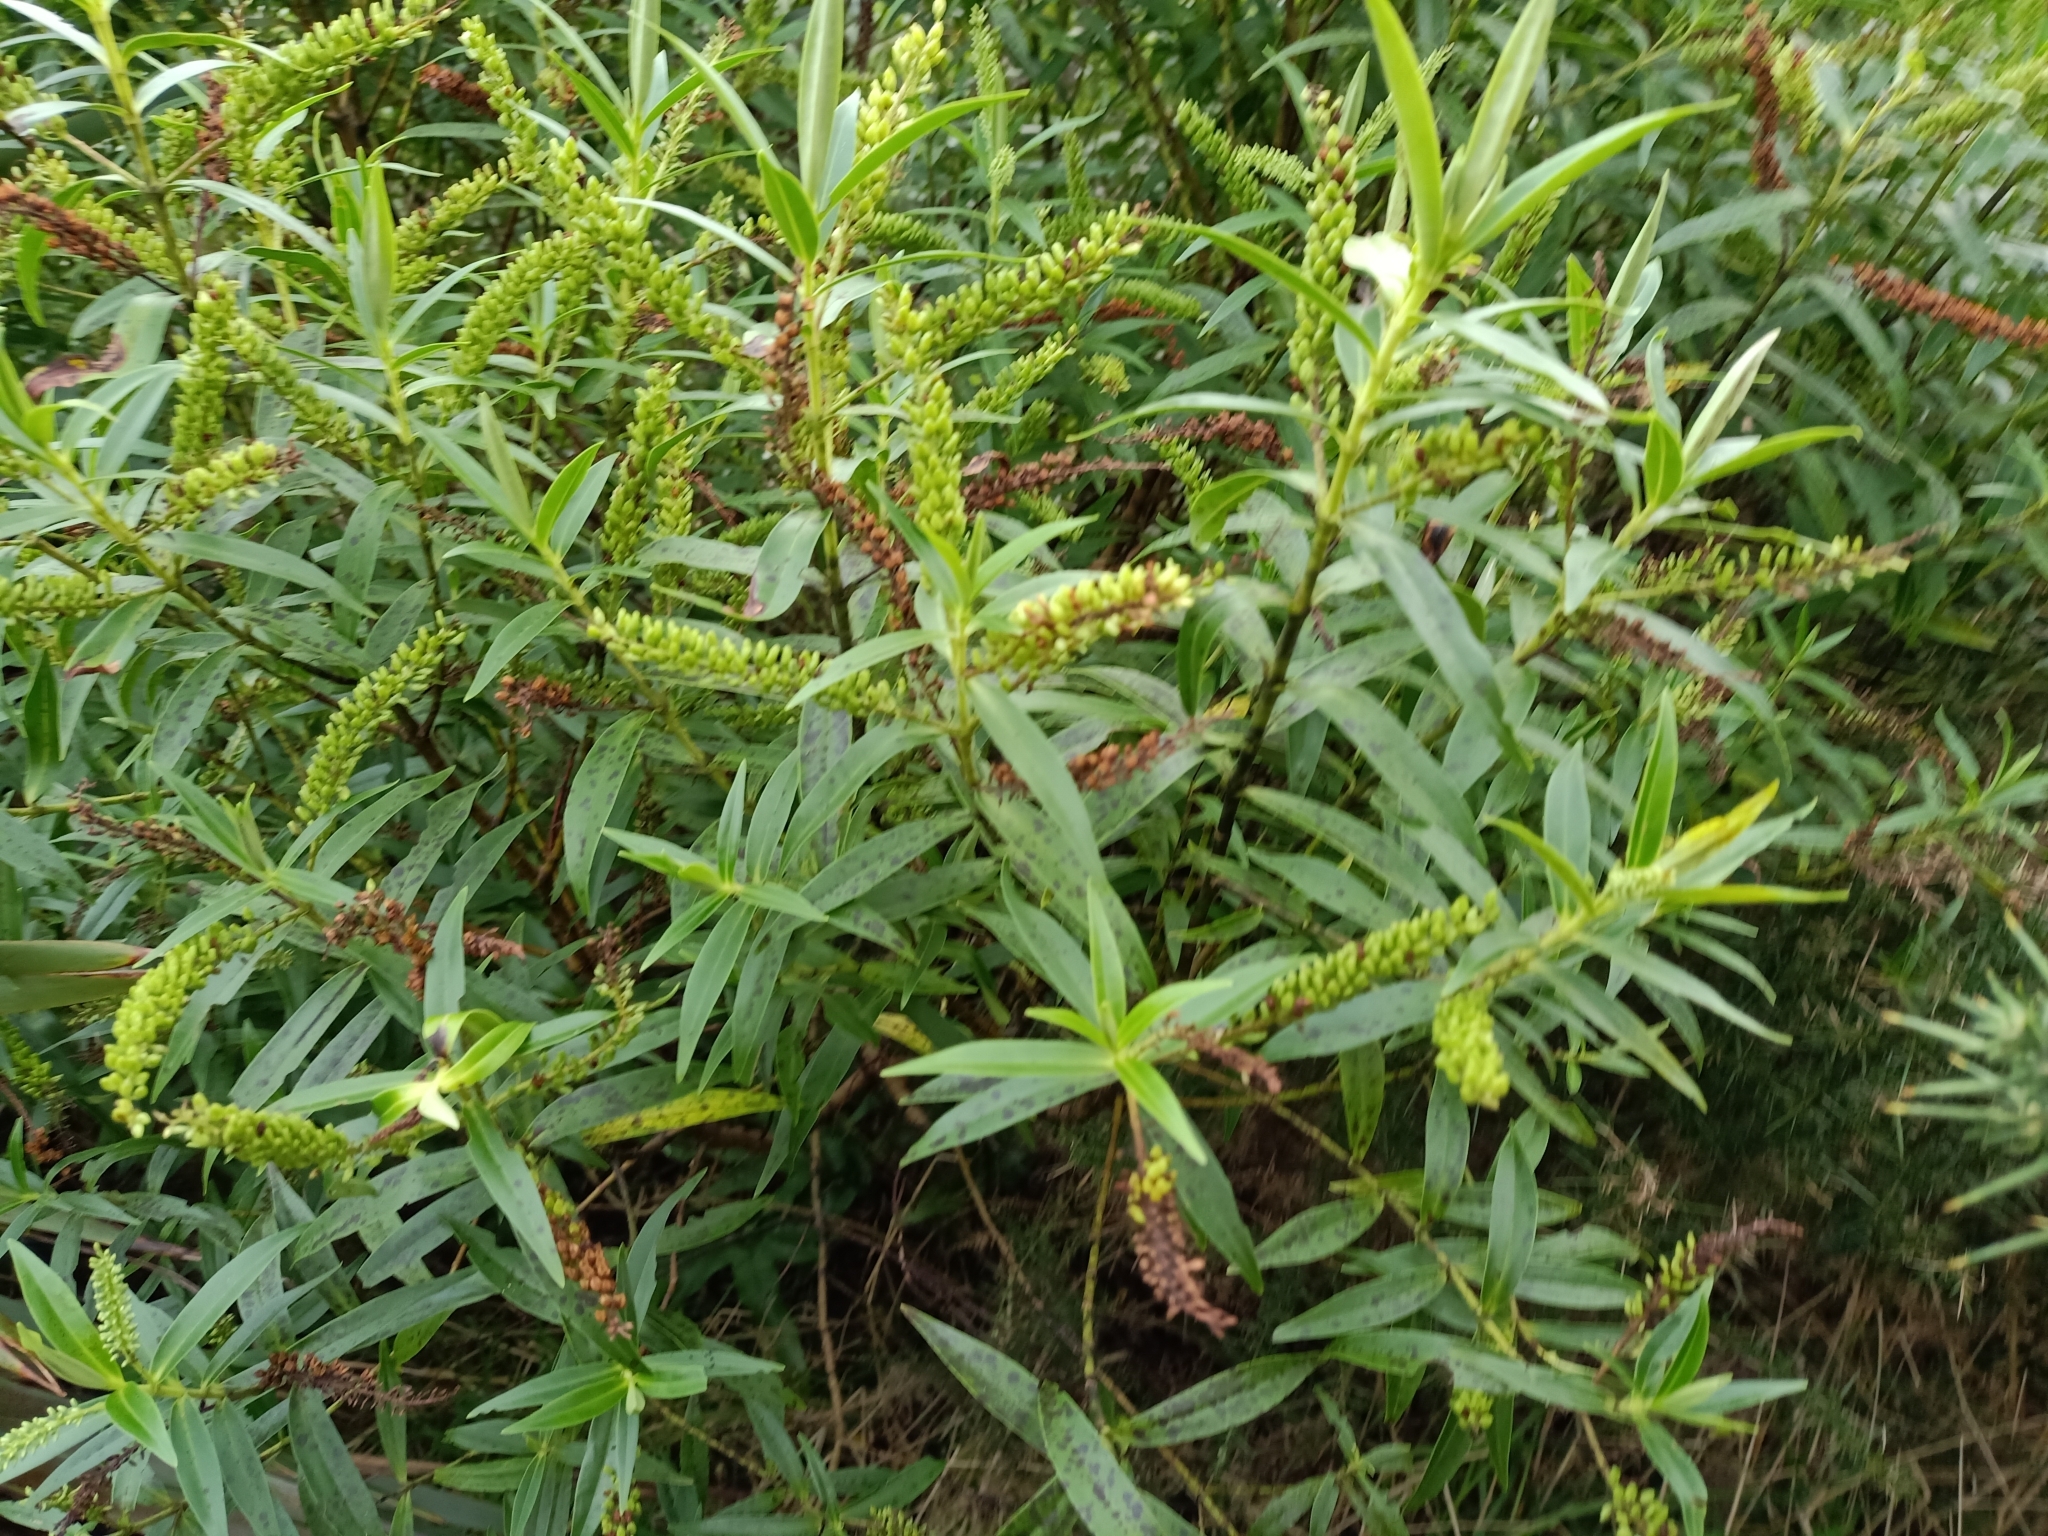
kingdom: Plantae
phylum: Tracheophyta
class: Magnoliopsida
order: Lamiales
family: Plantaginaceae
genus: Veronica
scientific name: Veronica stricta
